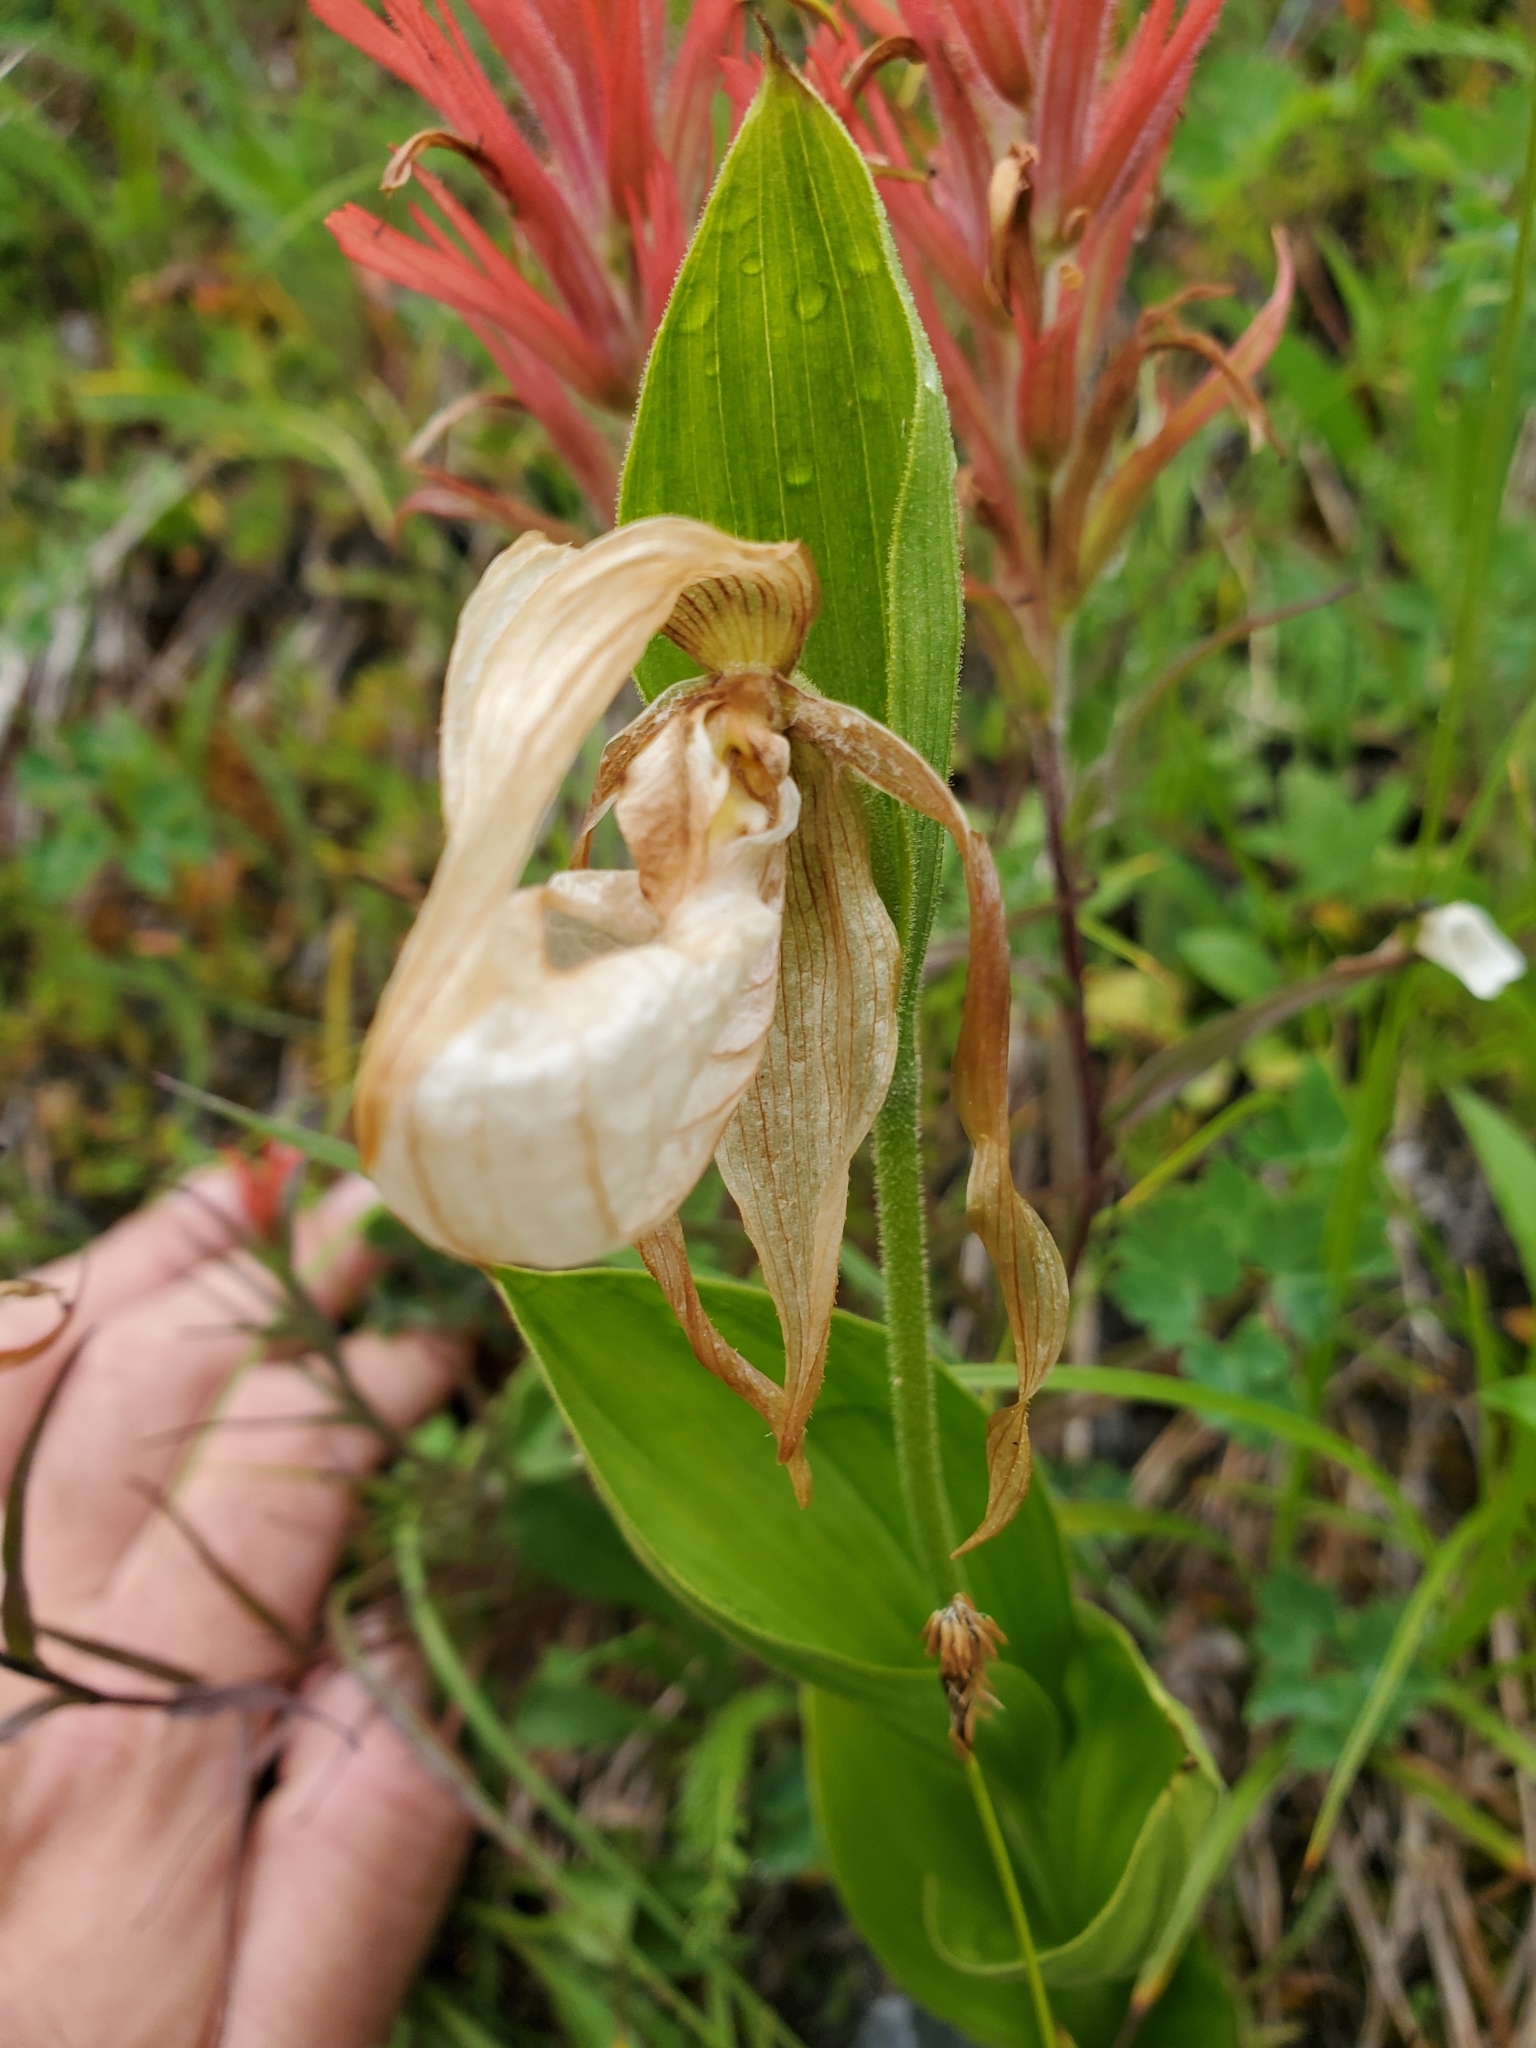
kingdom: Plantae
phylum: Tracheophyta
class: Liliopsida
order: Asparagales
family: Orchidaceae
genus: Cypripedium
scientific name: Cypripedium montanum
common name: Mountain lady's-slipper
